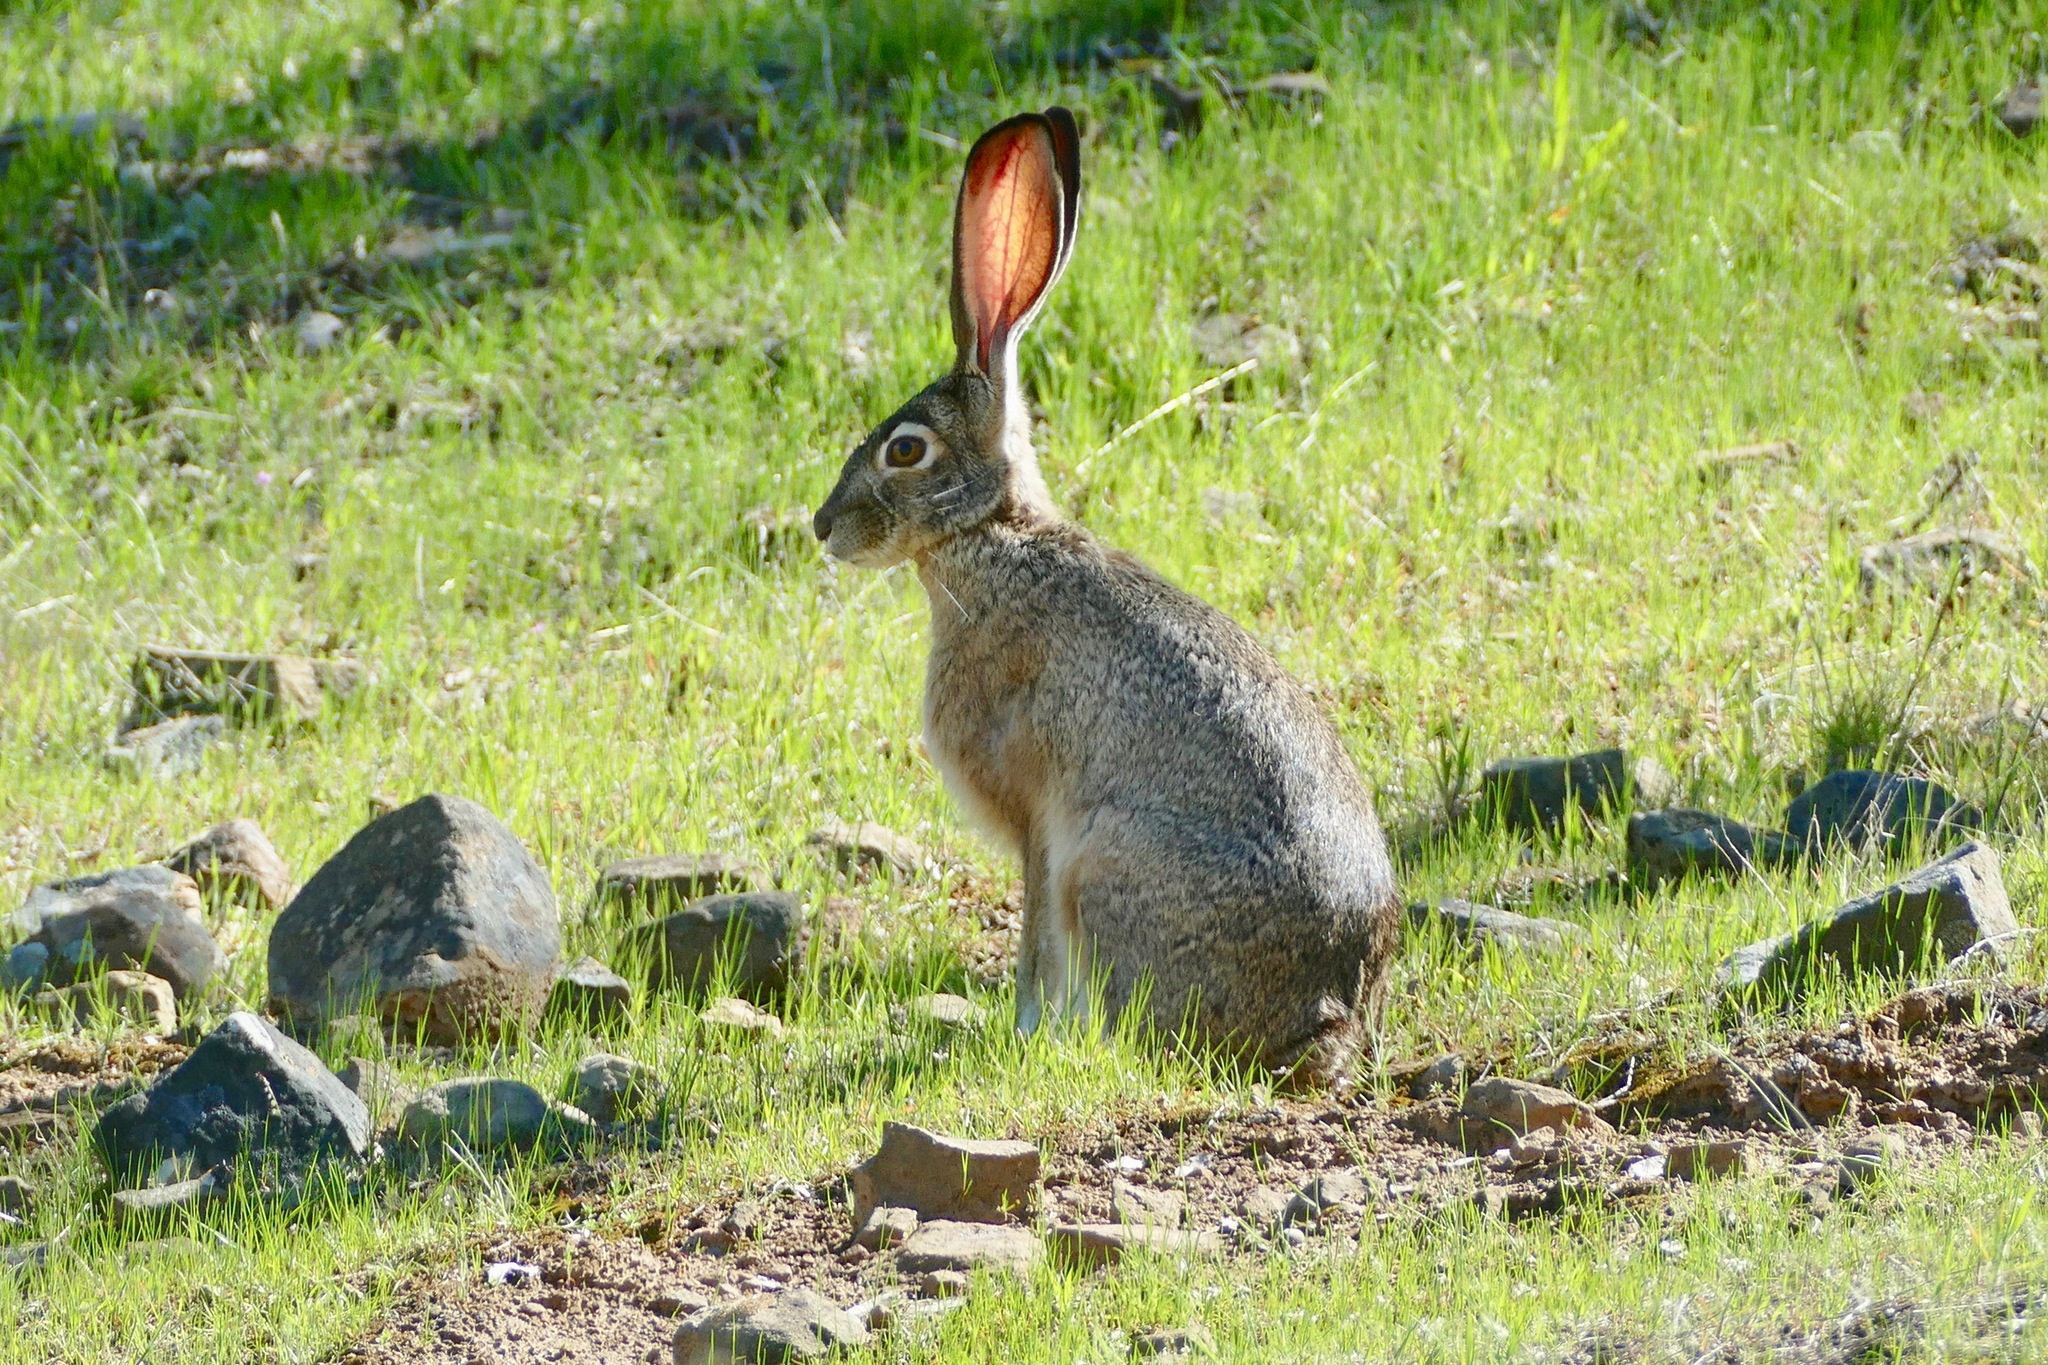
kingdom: Animalia
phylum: Chordata
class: Mammalia
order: Lagomorpha
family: Leporidae
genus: Lepus
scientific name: Lepus californicus
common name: Black-tailed jackrabbit
